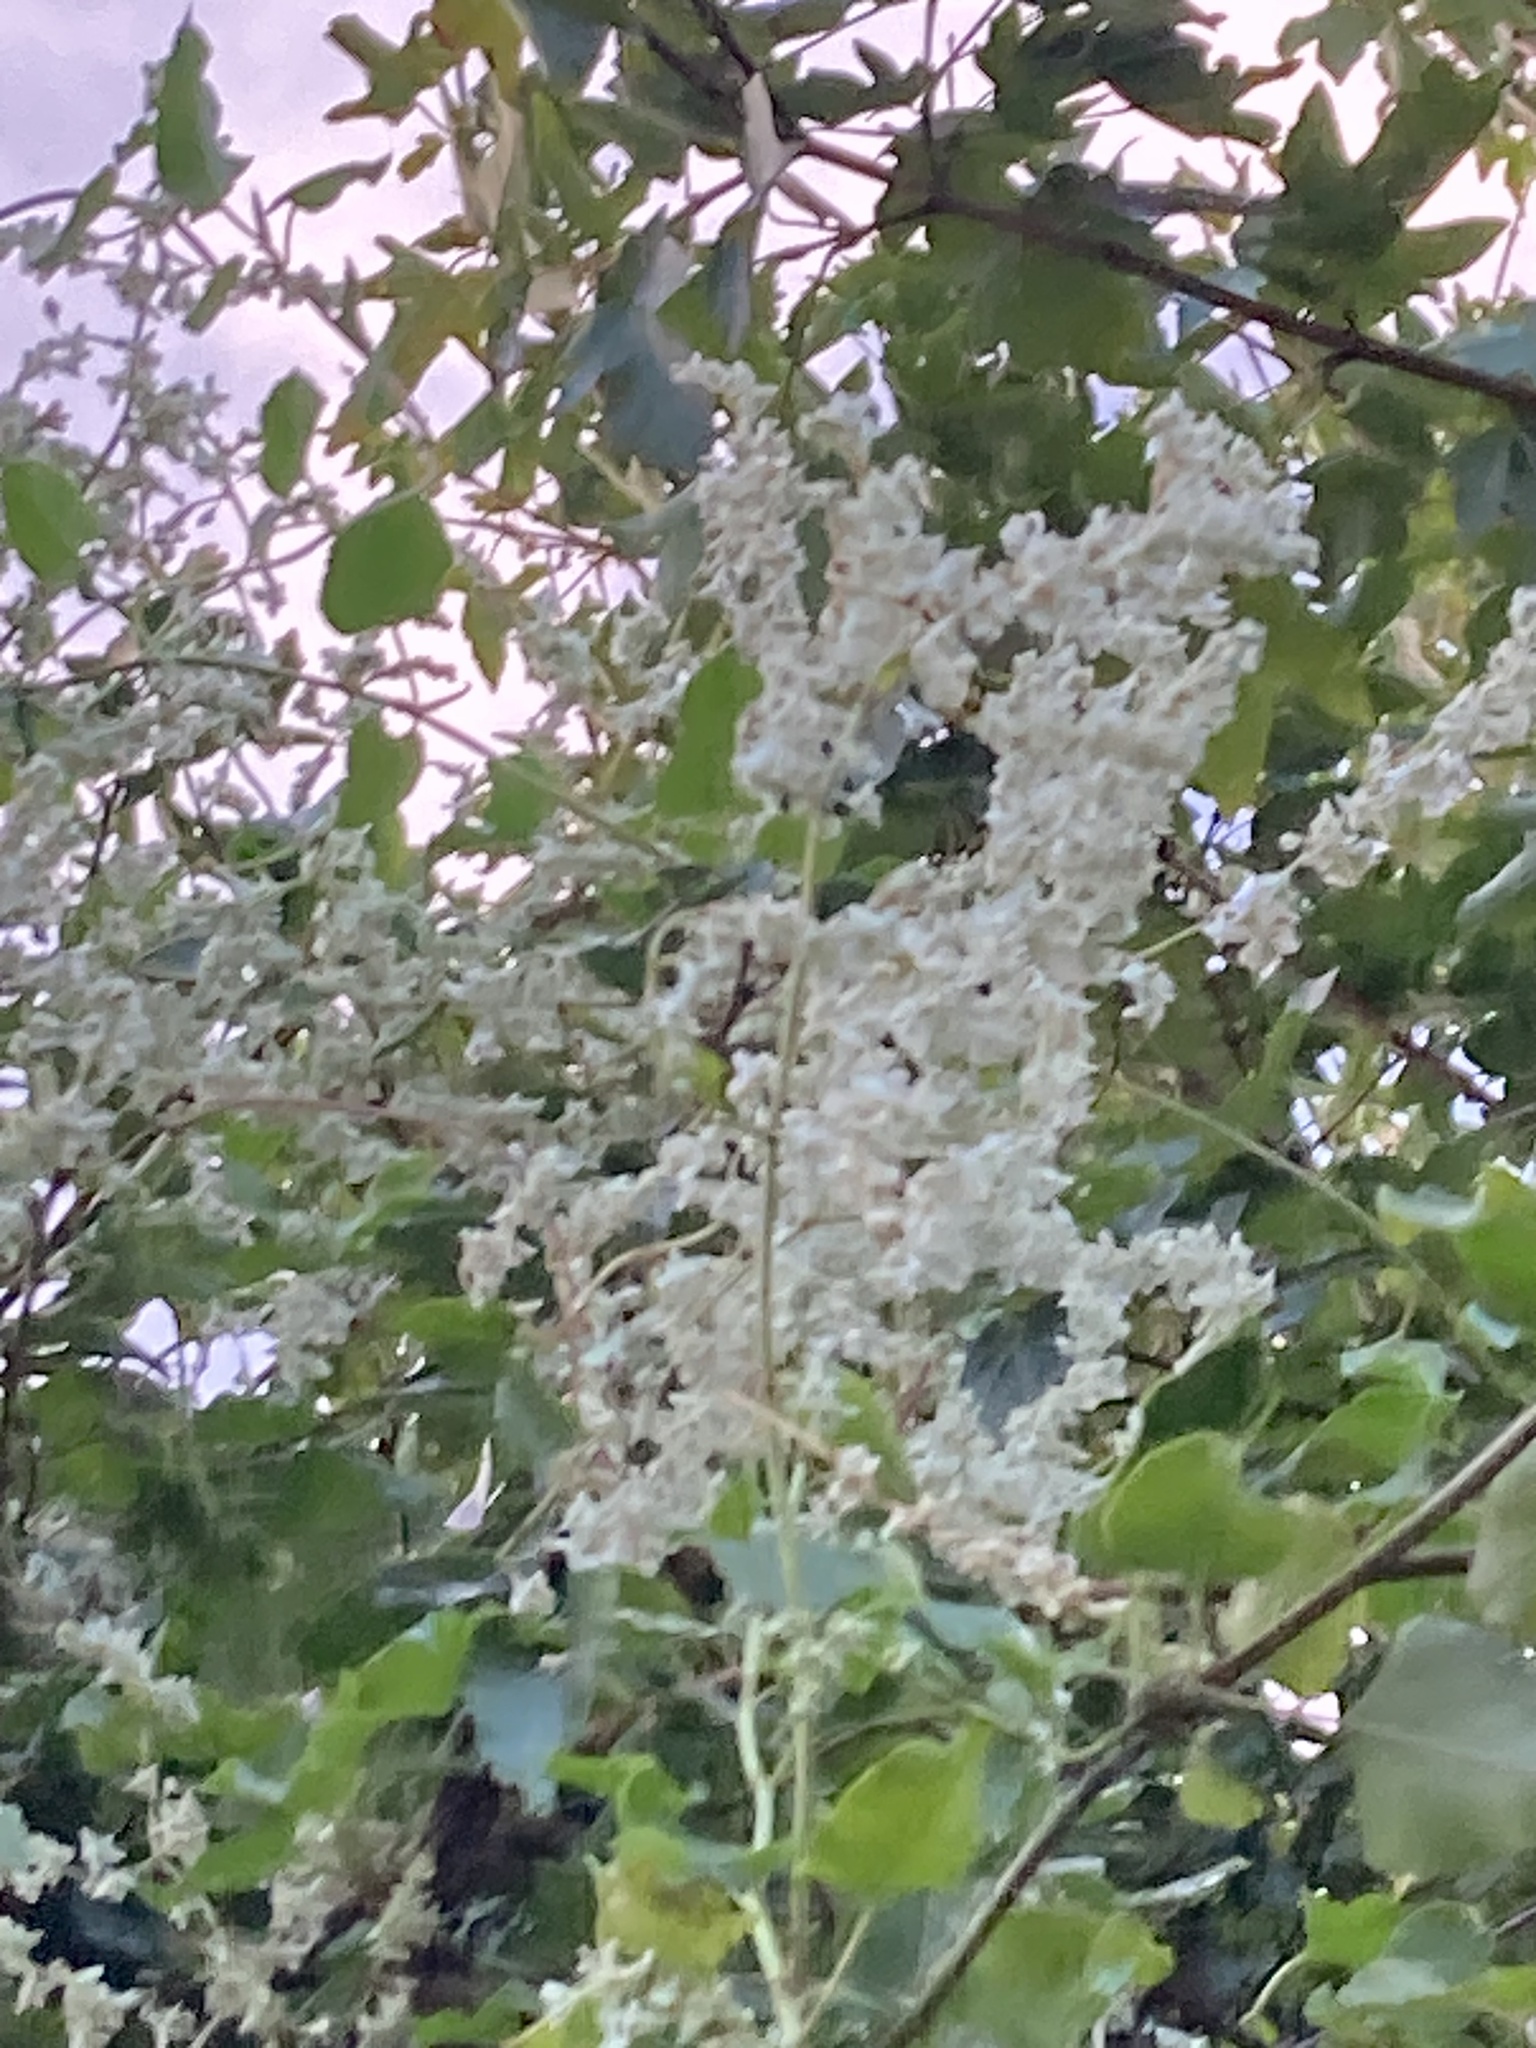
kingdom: Plantae
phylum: Tracheophyta
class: Magnoliopsida
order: Caryophyllales
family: Polygonaceae
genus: Fallopia
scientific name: Fallopia baldschuanica
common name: Russian-vine
